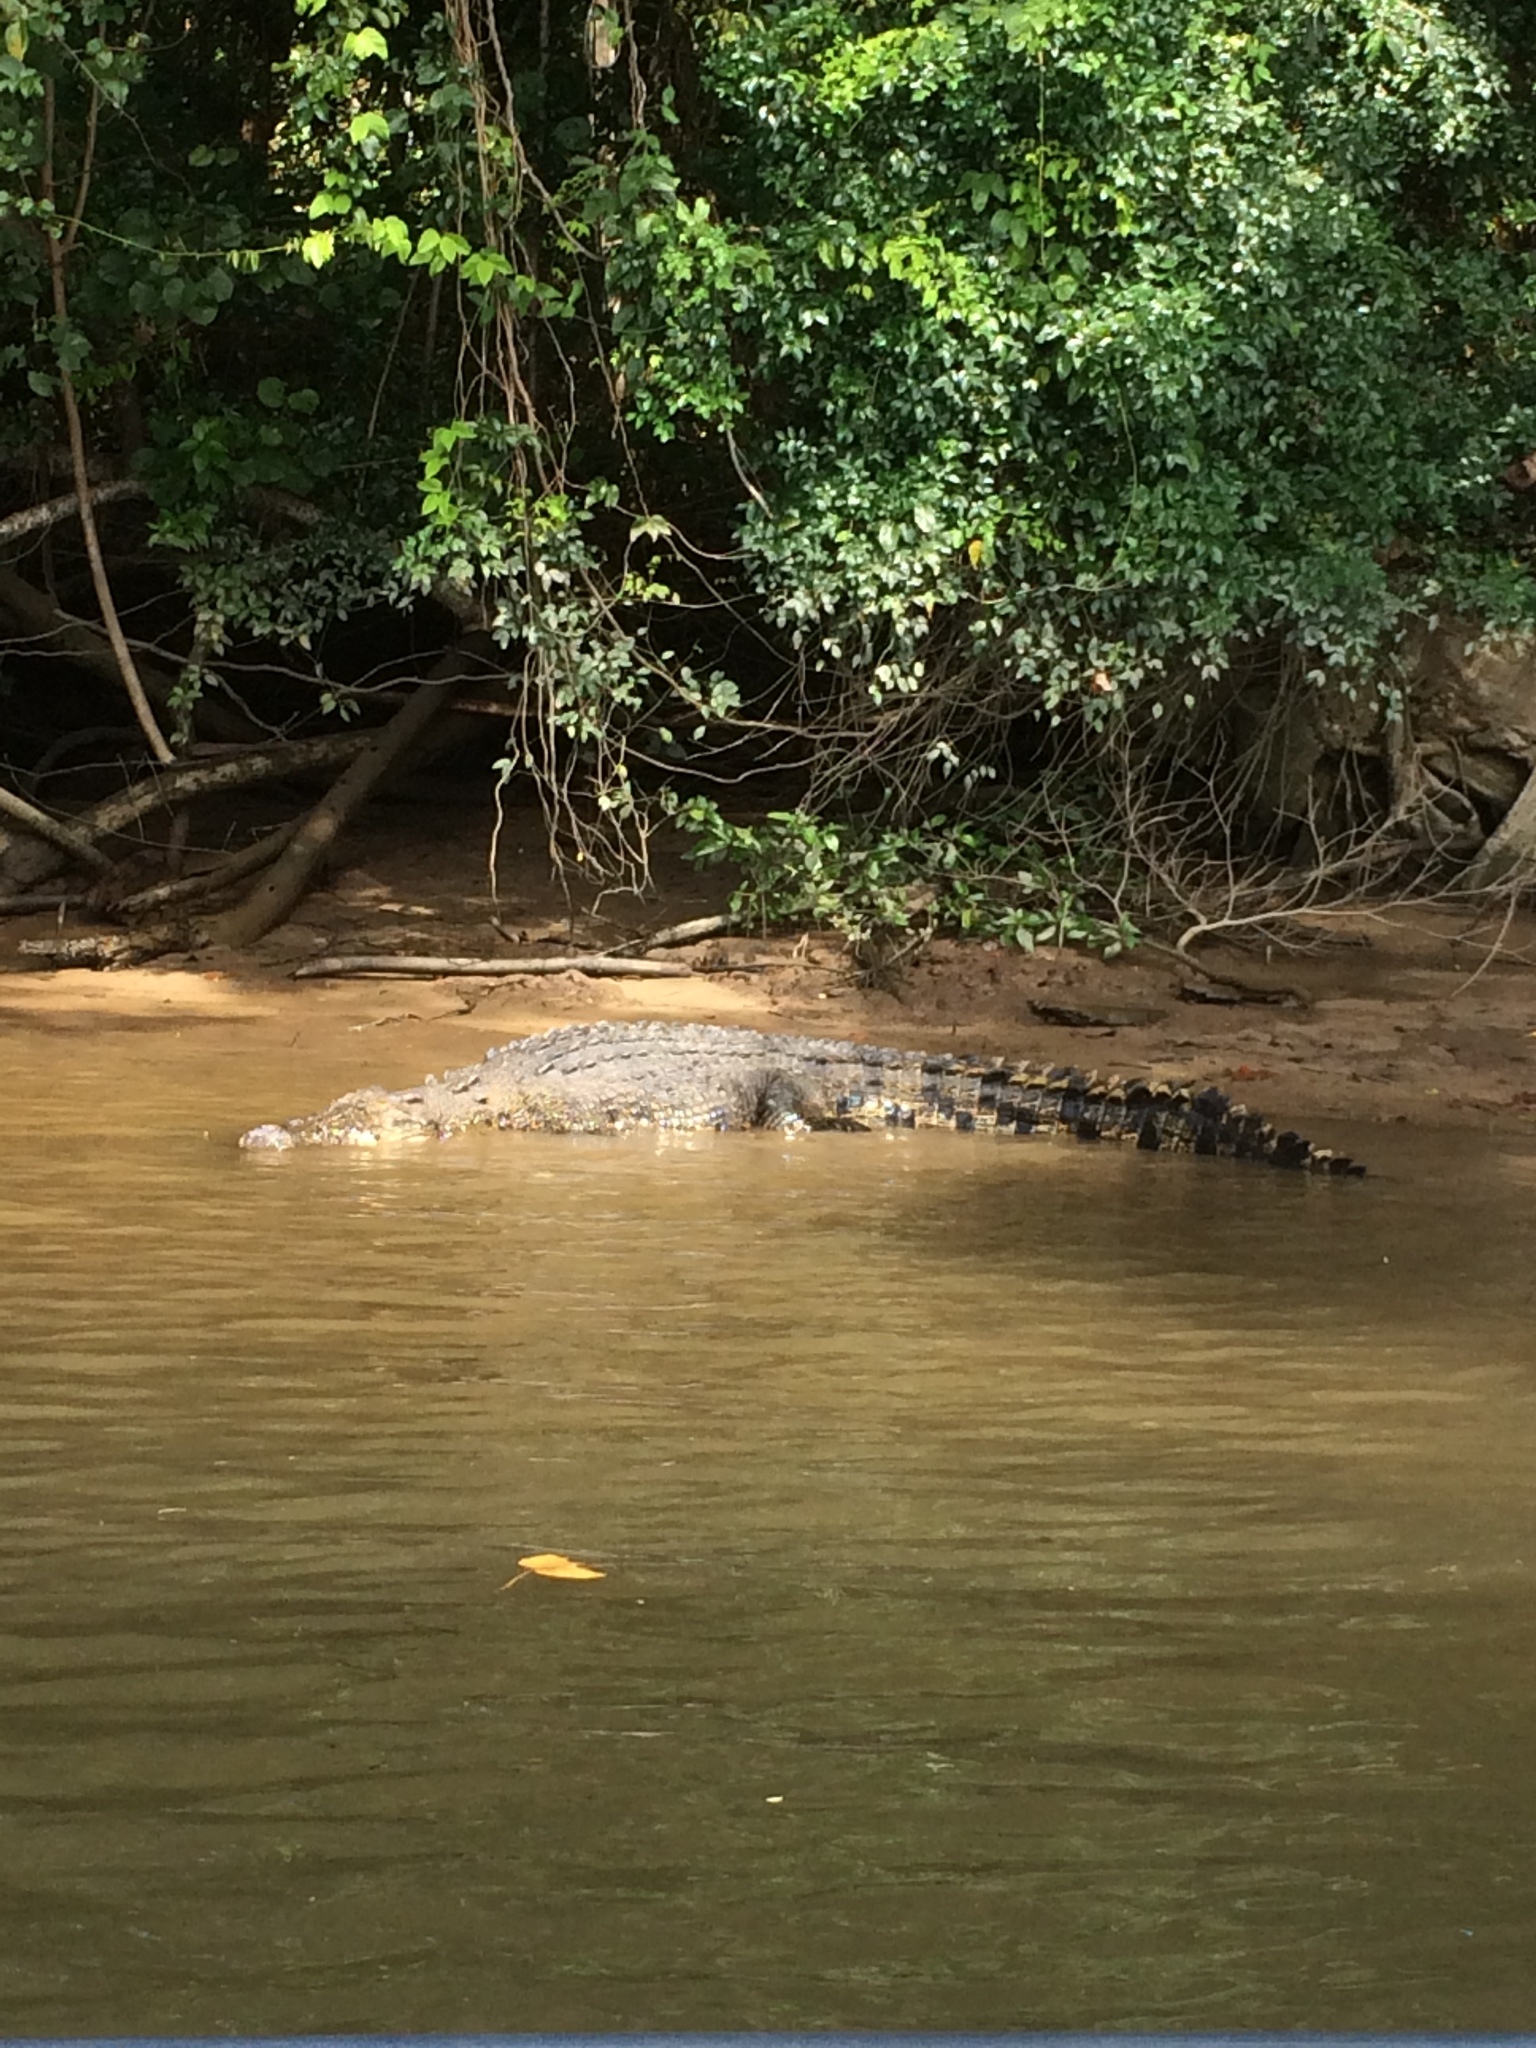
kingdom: Animalia
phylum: Chordata
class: Crocodylia
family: Crocodylidae
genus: Crocodylus
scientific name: Crocodylus porosus
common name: Saltwater crocodile
